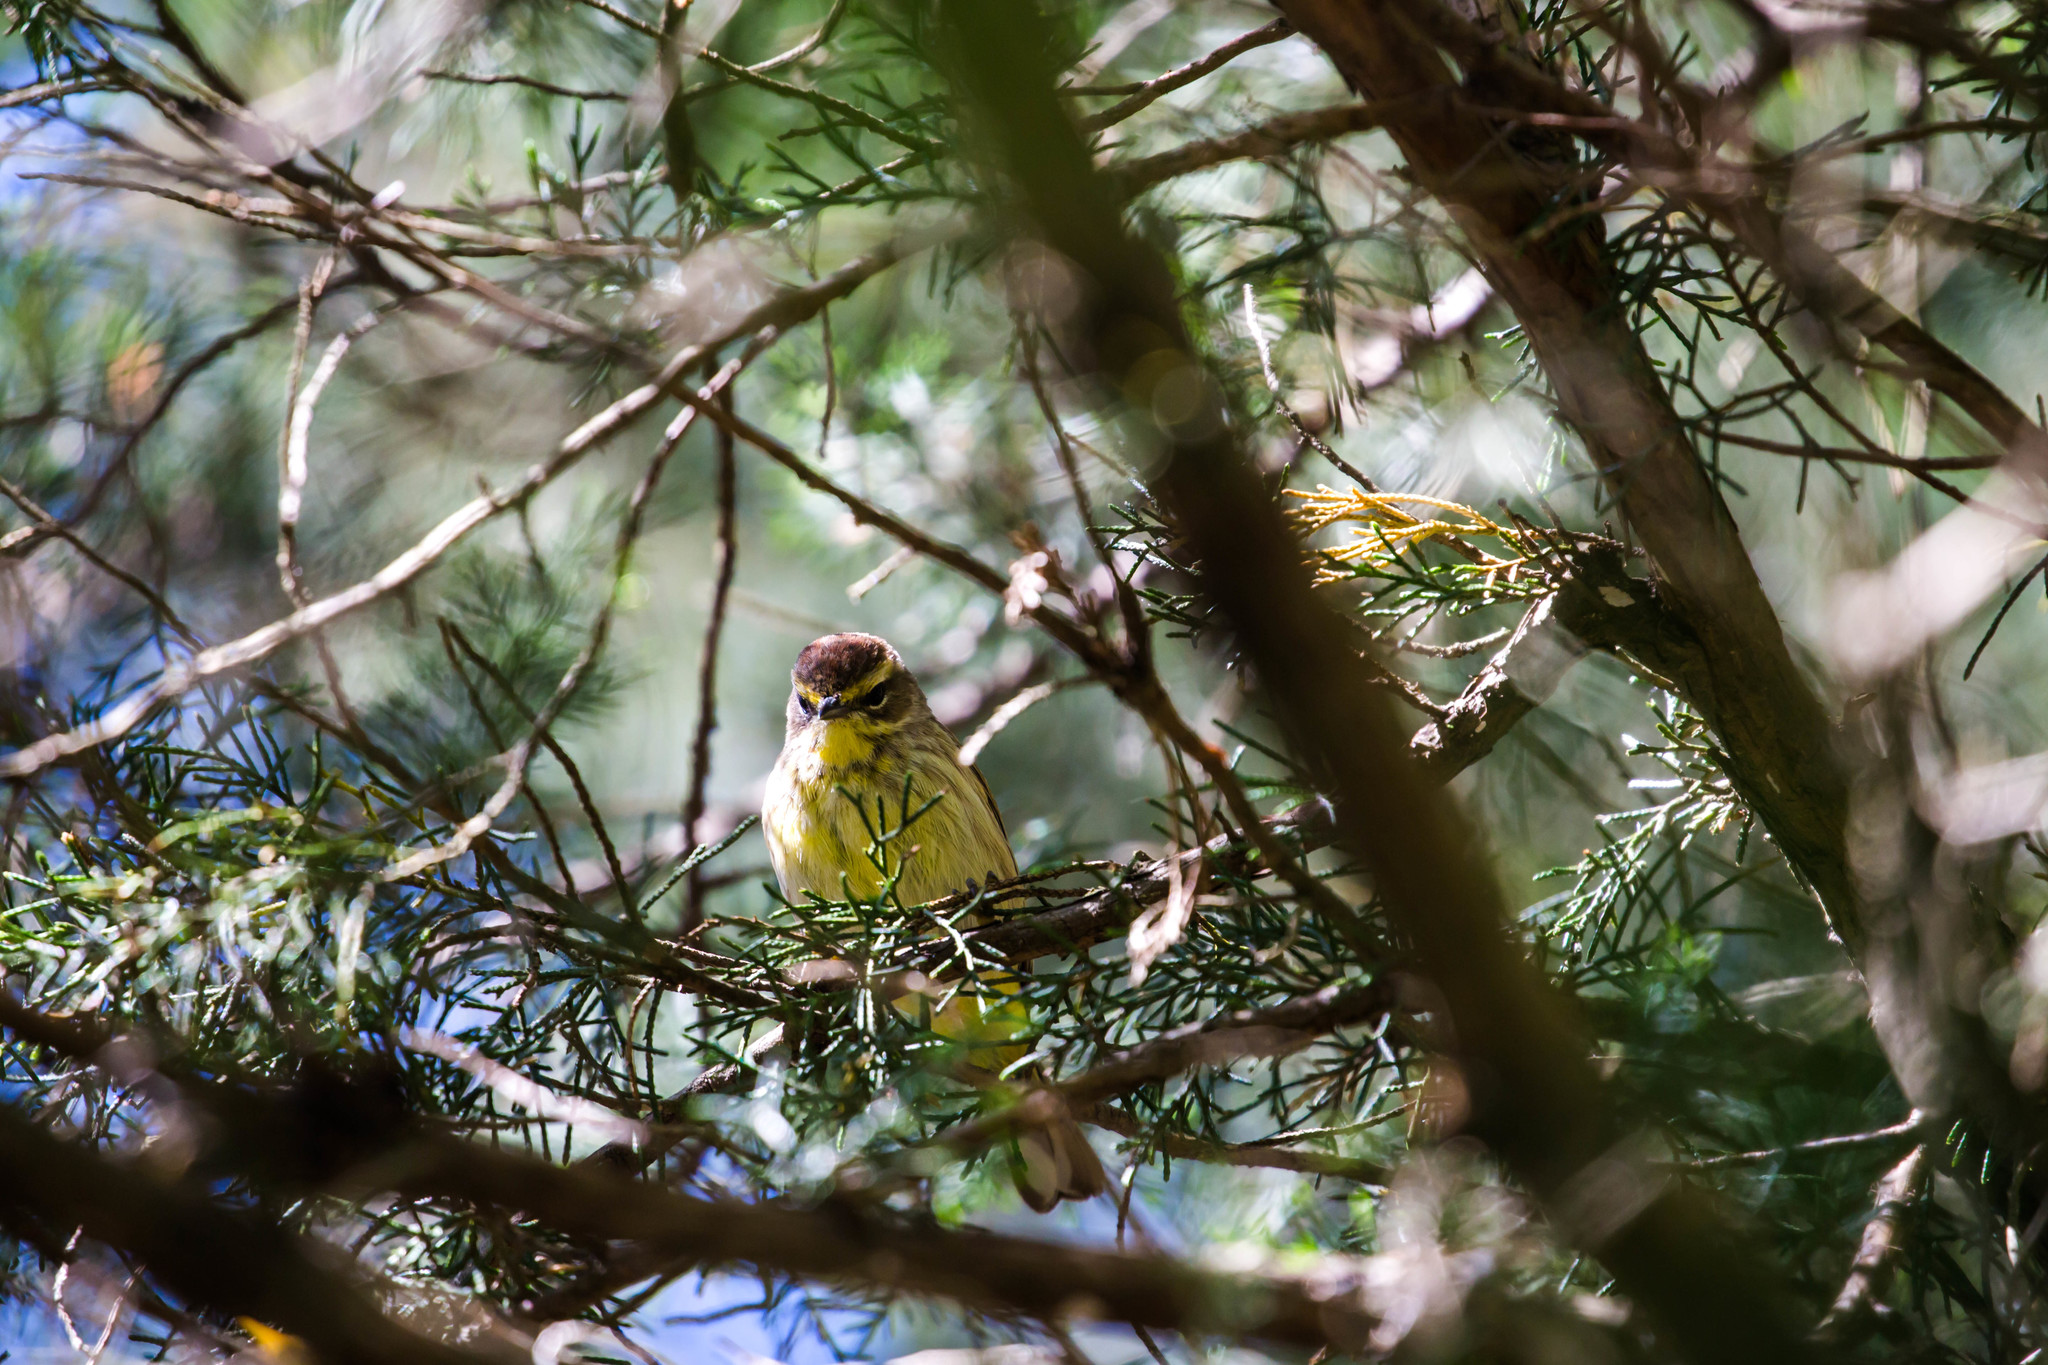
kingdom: Animalia
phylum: Chordata
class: Aves
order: Passeriformes
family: Parulidae
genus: Setophaga
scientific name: Setophaga palmarum
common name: Palm warbler
